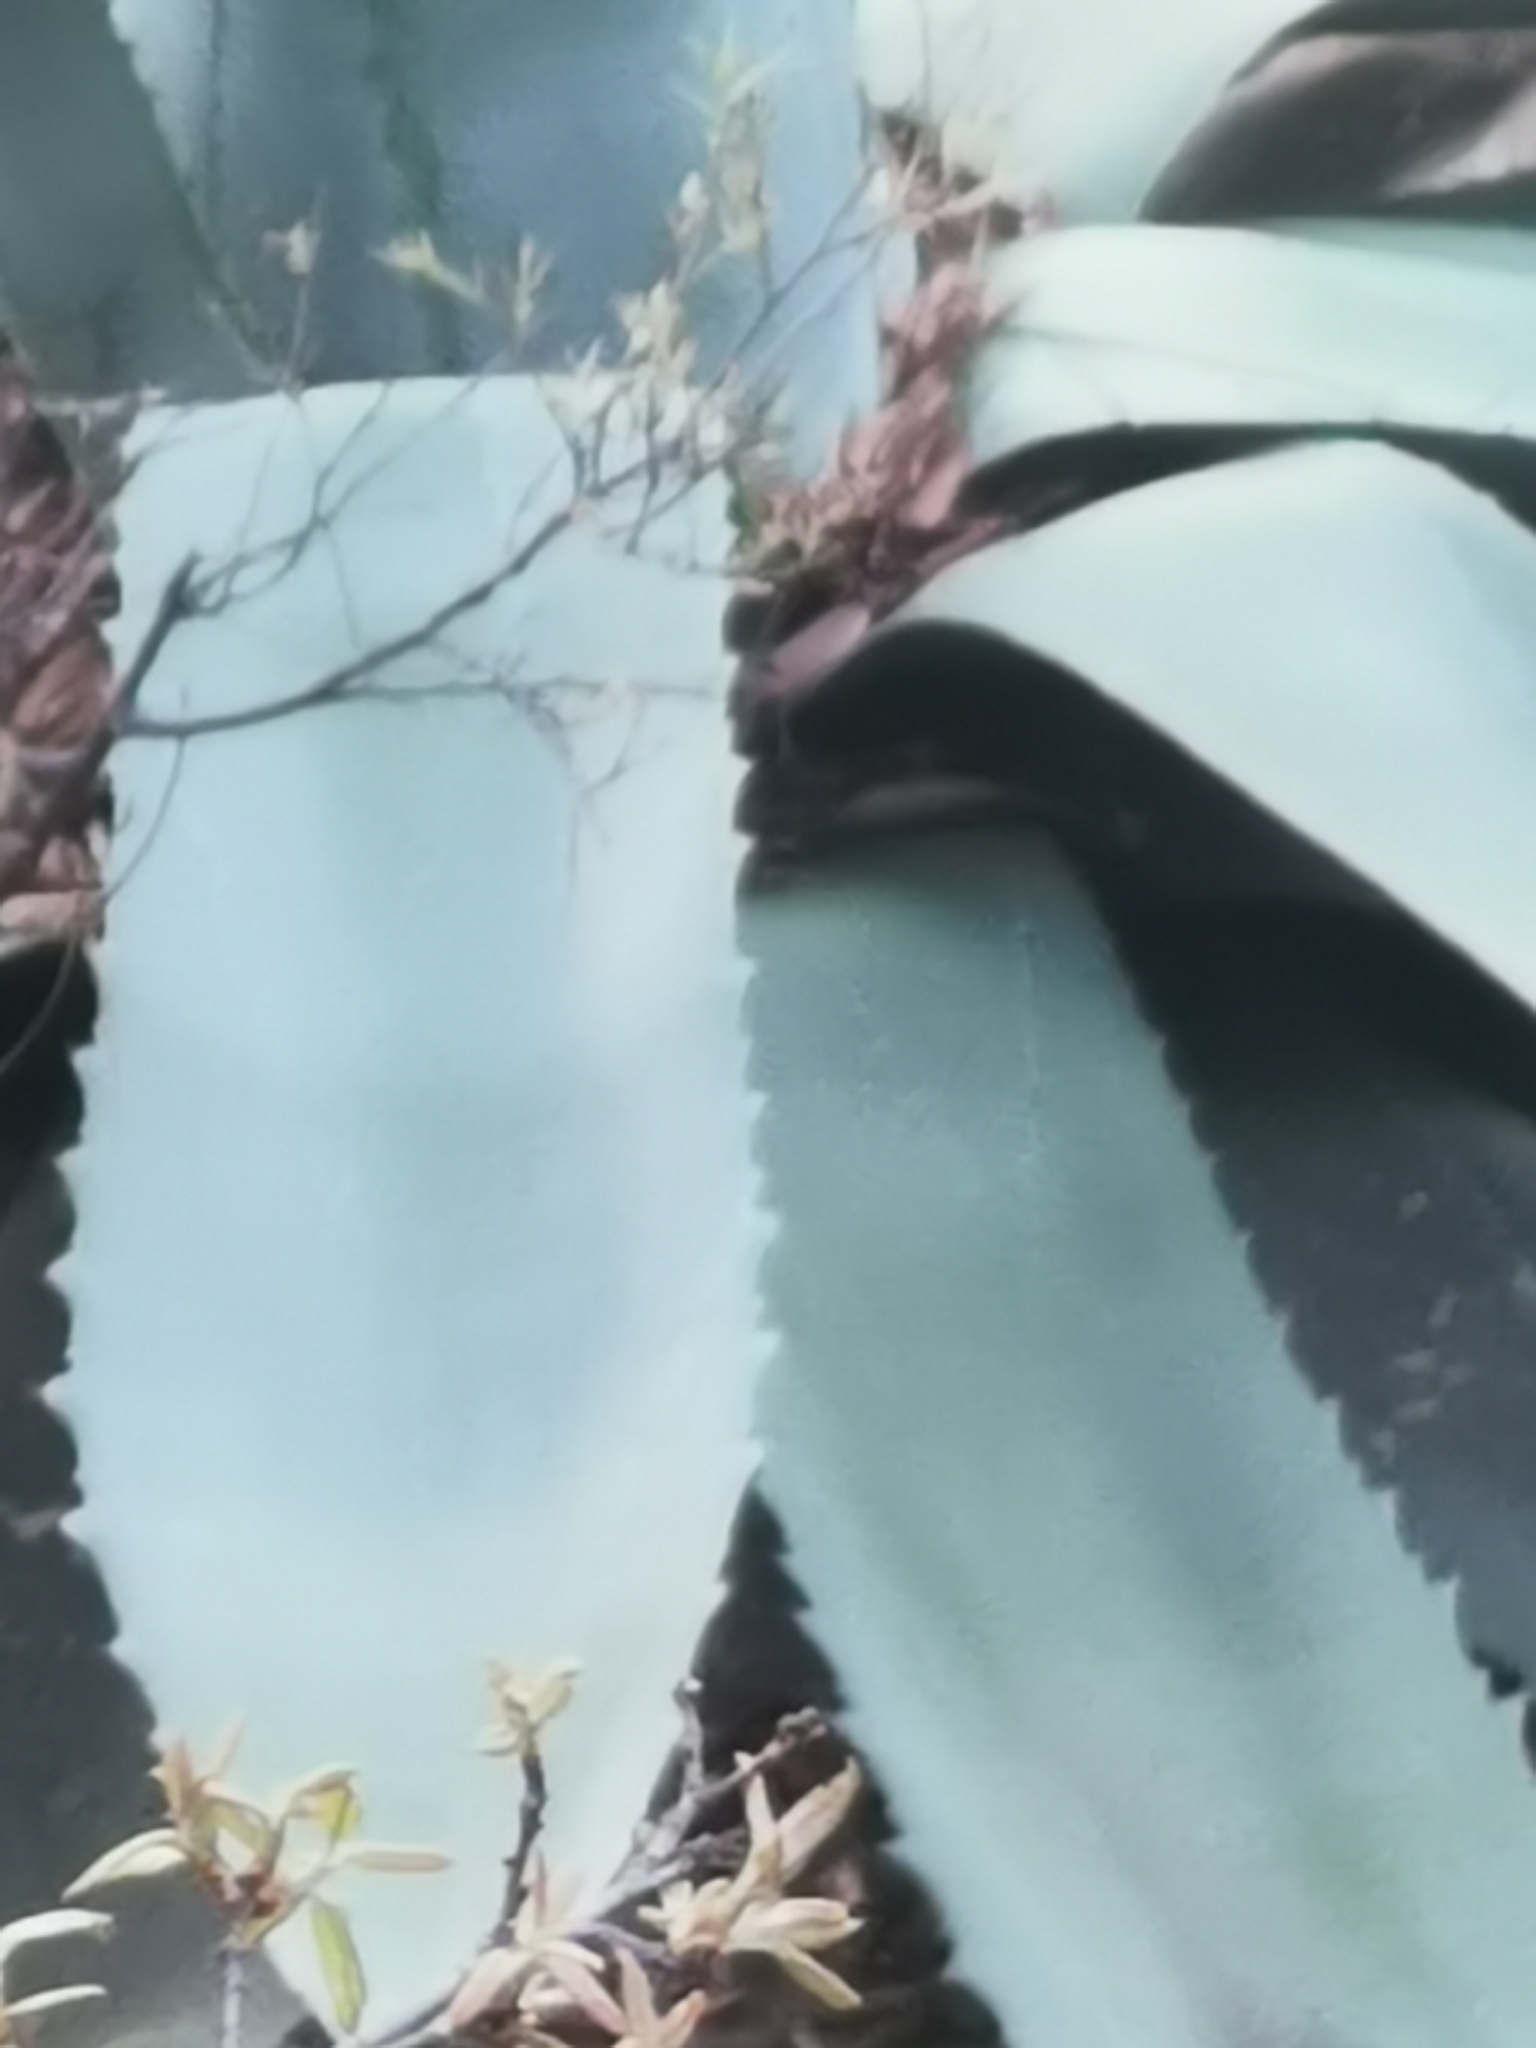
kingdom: Plantae
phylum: Tracheophyta
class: Liliopsida
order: Asparagales
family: Asparagaceae
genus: Agave
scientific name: Agave wocomahi
